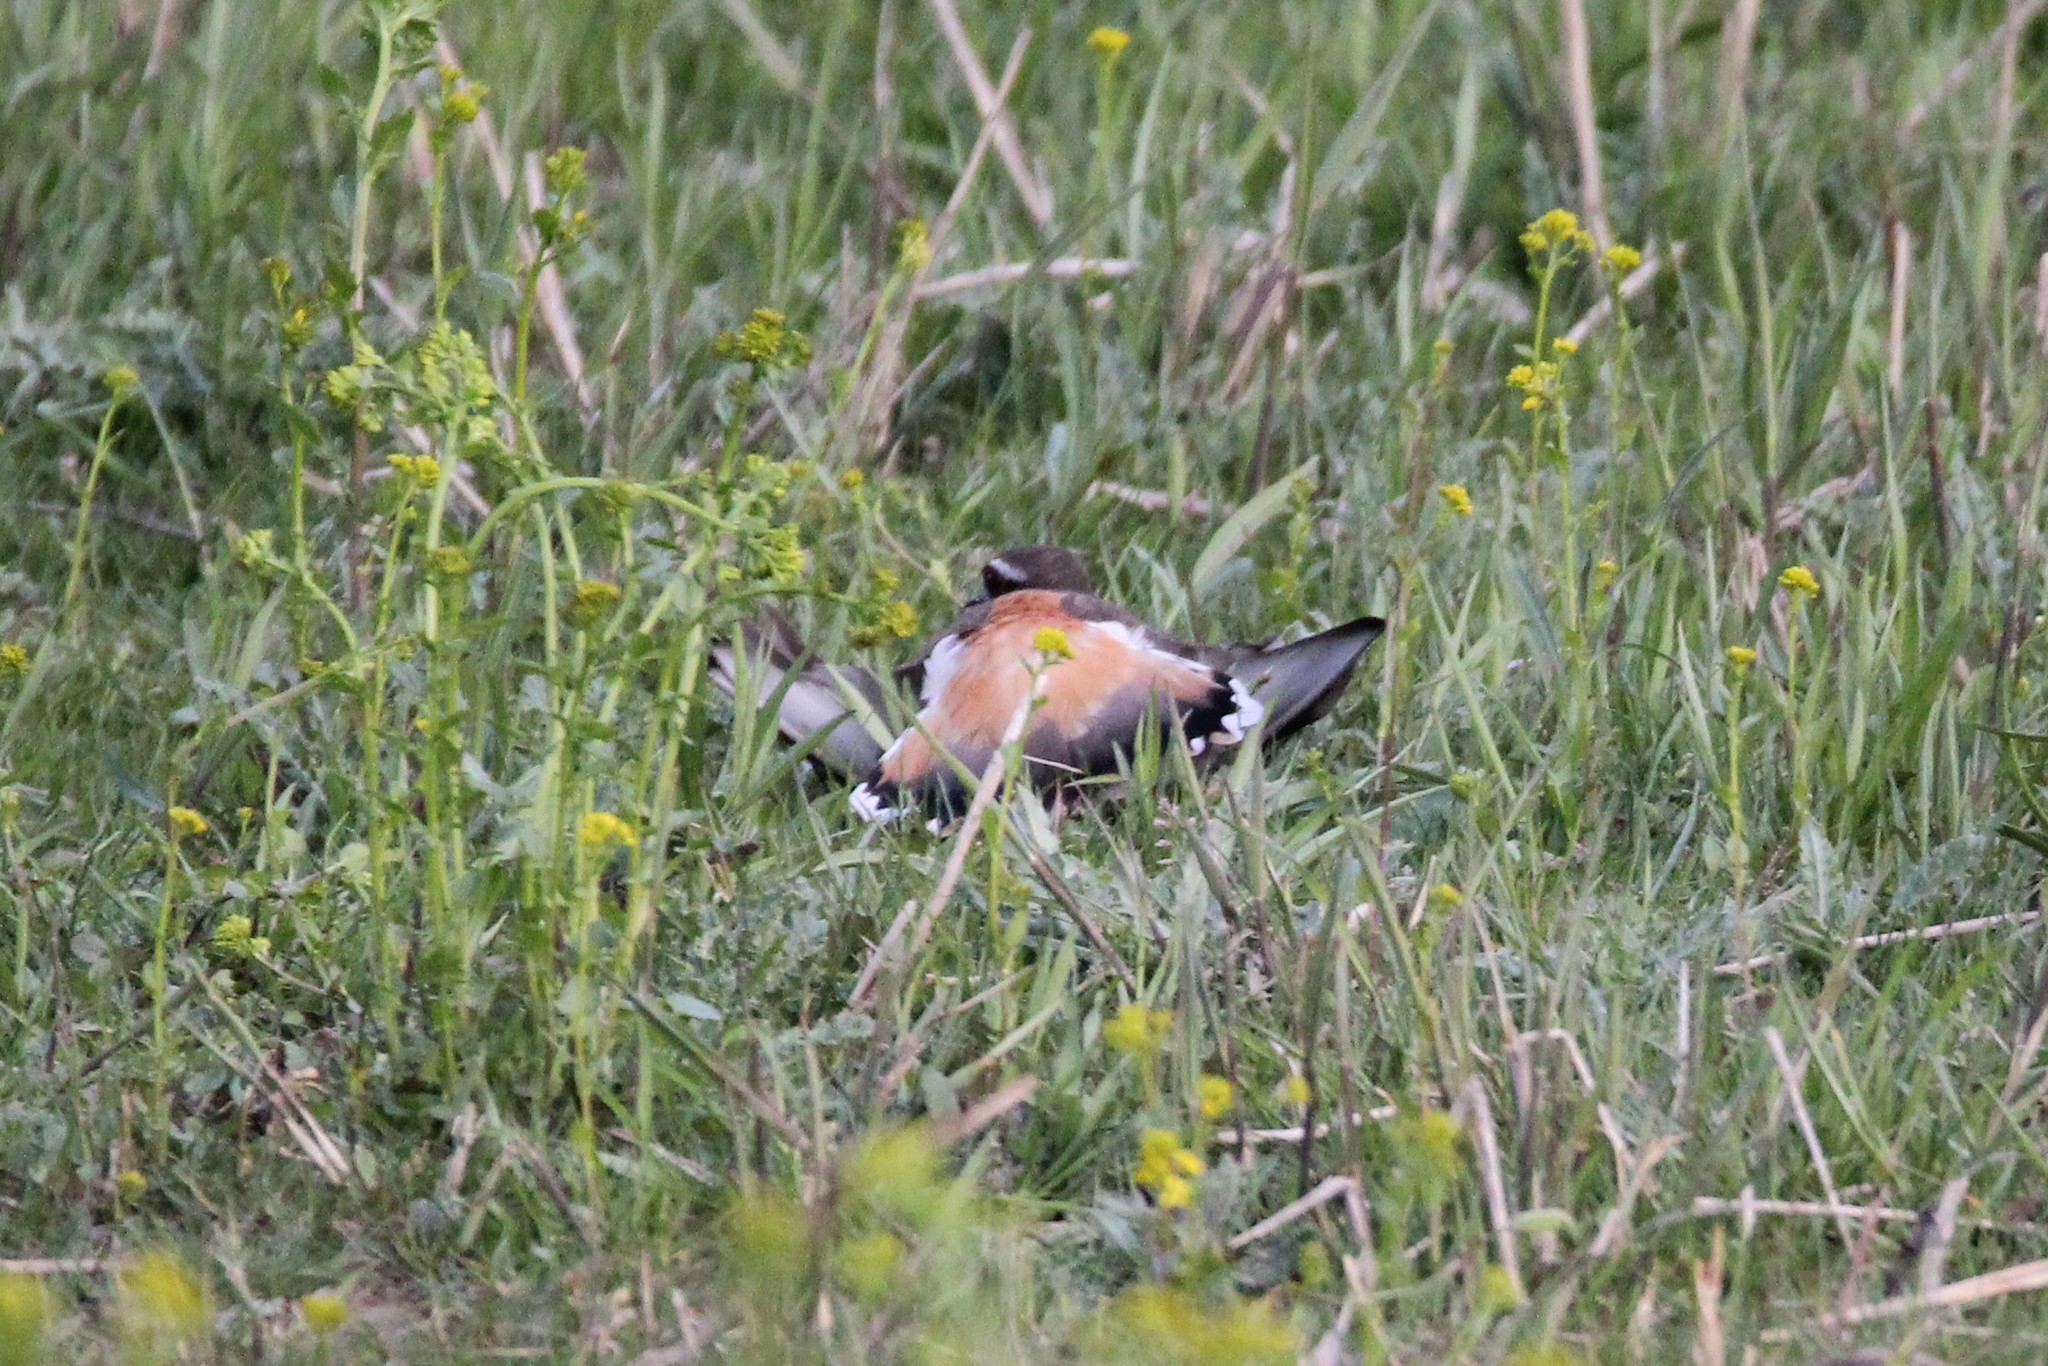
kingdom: Animalia
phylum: Chordata
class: Aves
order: Charadriiformes
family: Charadriidae
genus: Charadrius
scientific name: Charadrius vociferus
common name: Killdeer
